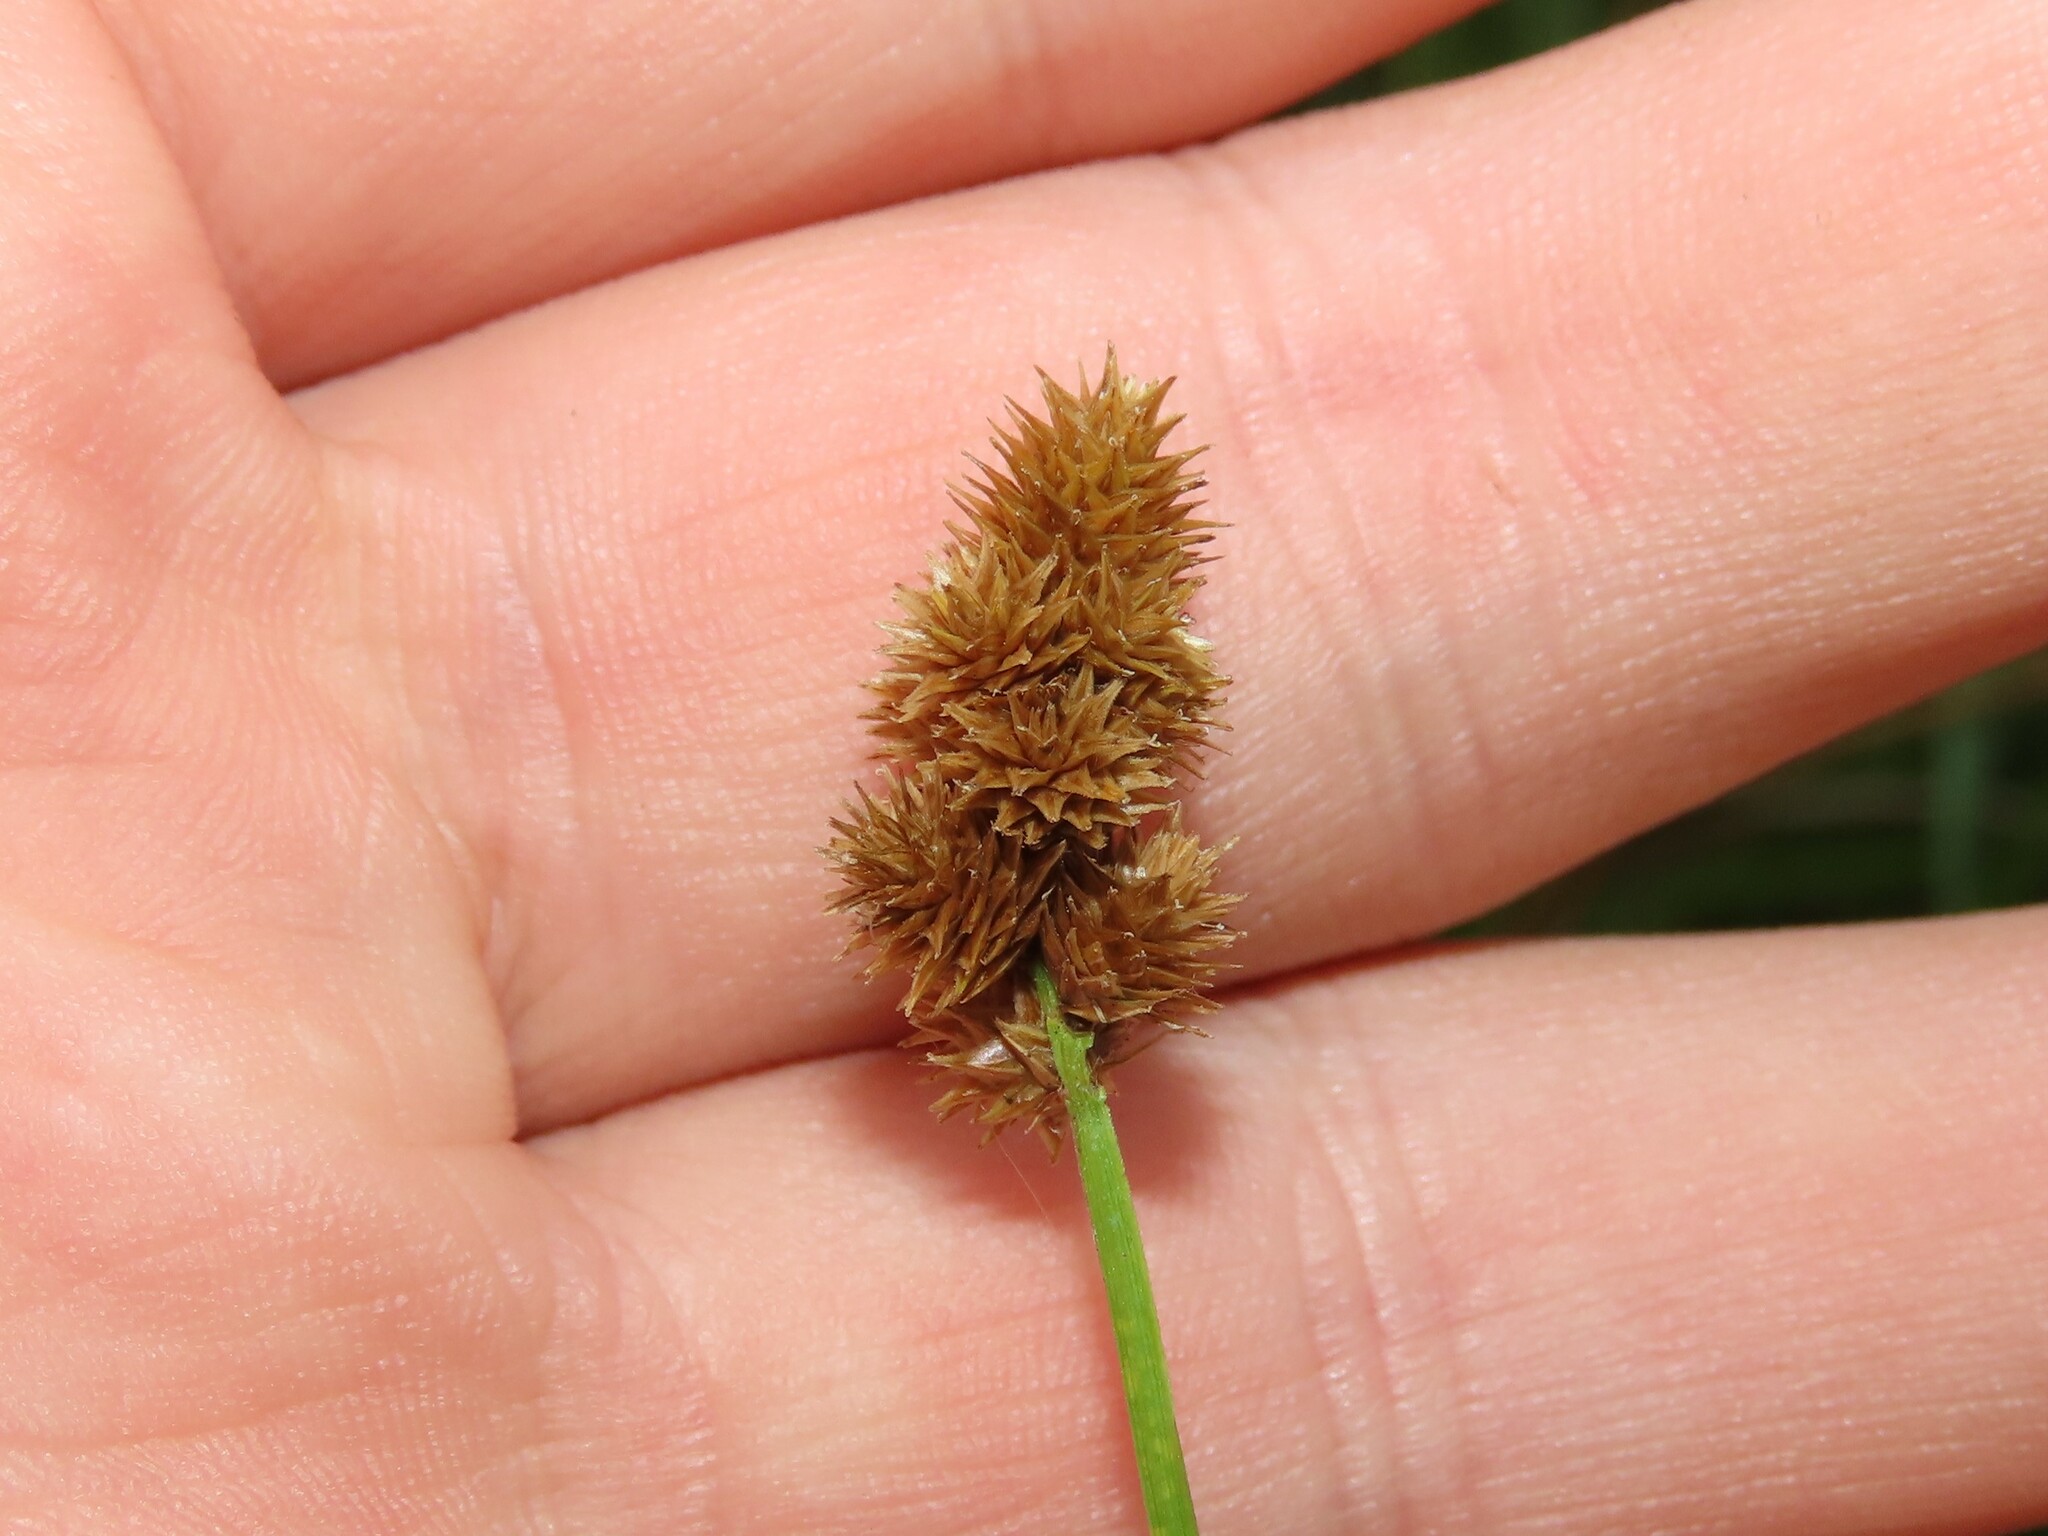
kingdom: Plantae
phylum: Tracheophyta
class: Liliopsida
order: Poales
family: Cyperaceae
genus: Carex
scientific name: Carex cristatella
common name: Crested oval sedge
